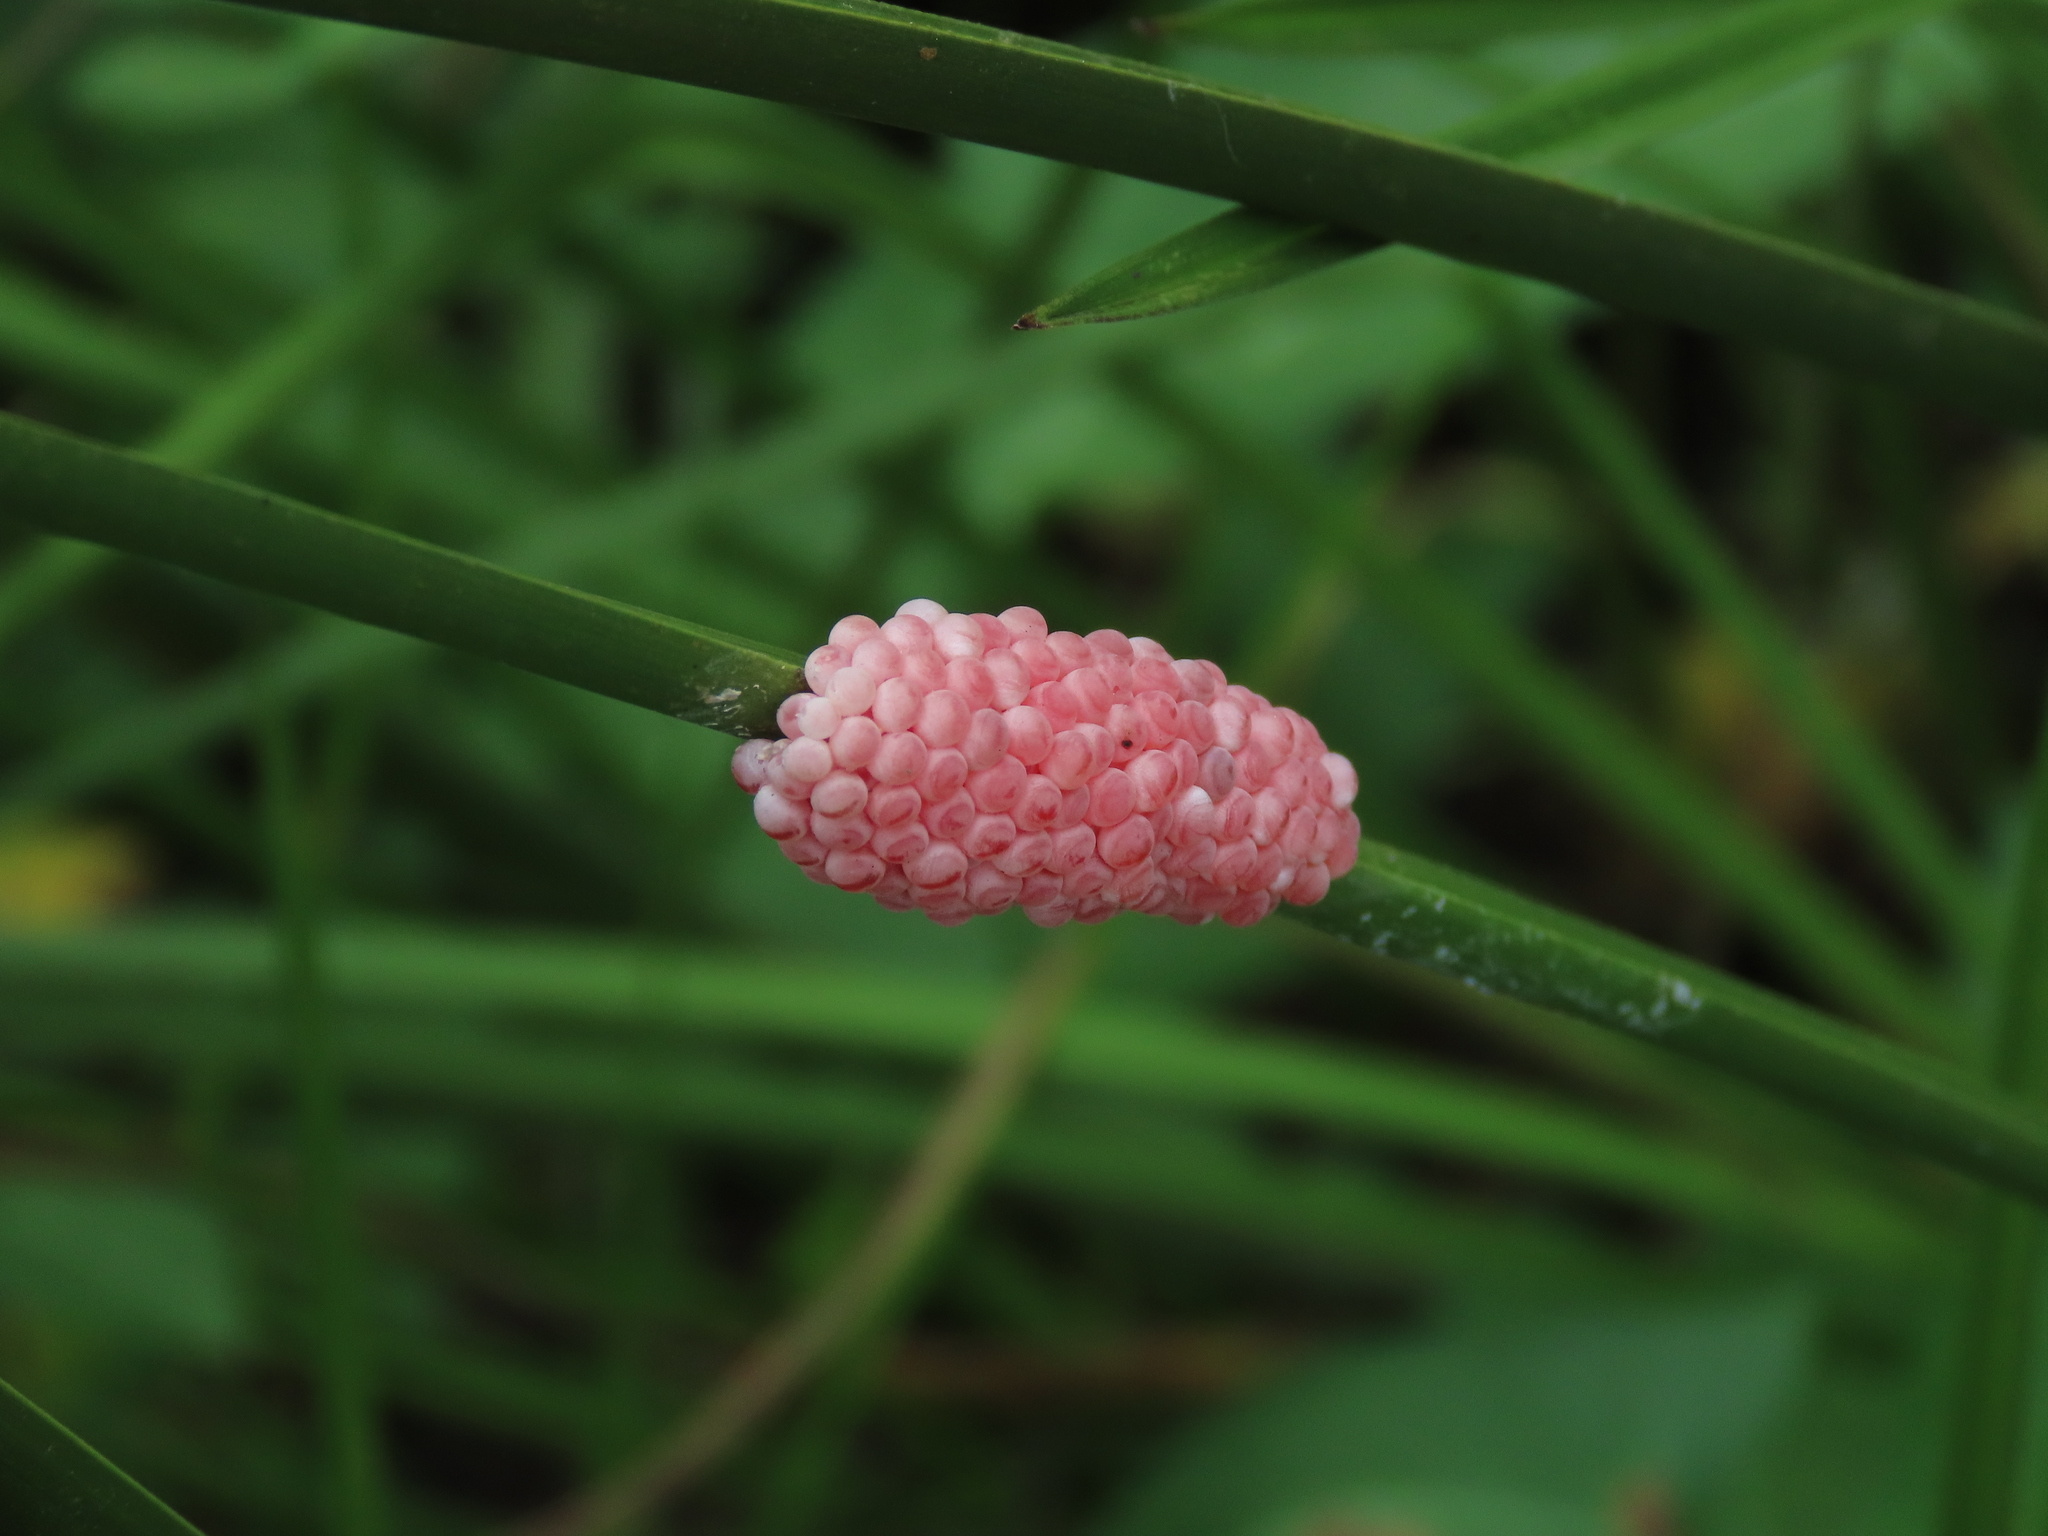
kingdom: Animalia
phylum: Mollusca
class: Gastropoda
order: Architaenioglossa
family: Ampullariidae
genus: Pomacea
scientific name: Pomacea canaliculata
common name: Channeled applesnail
